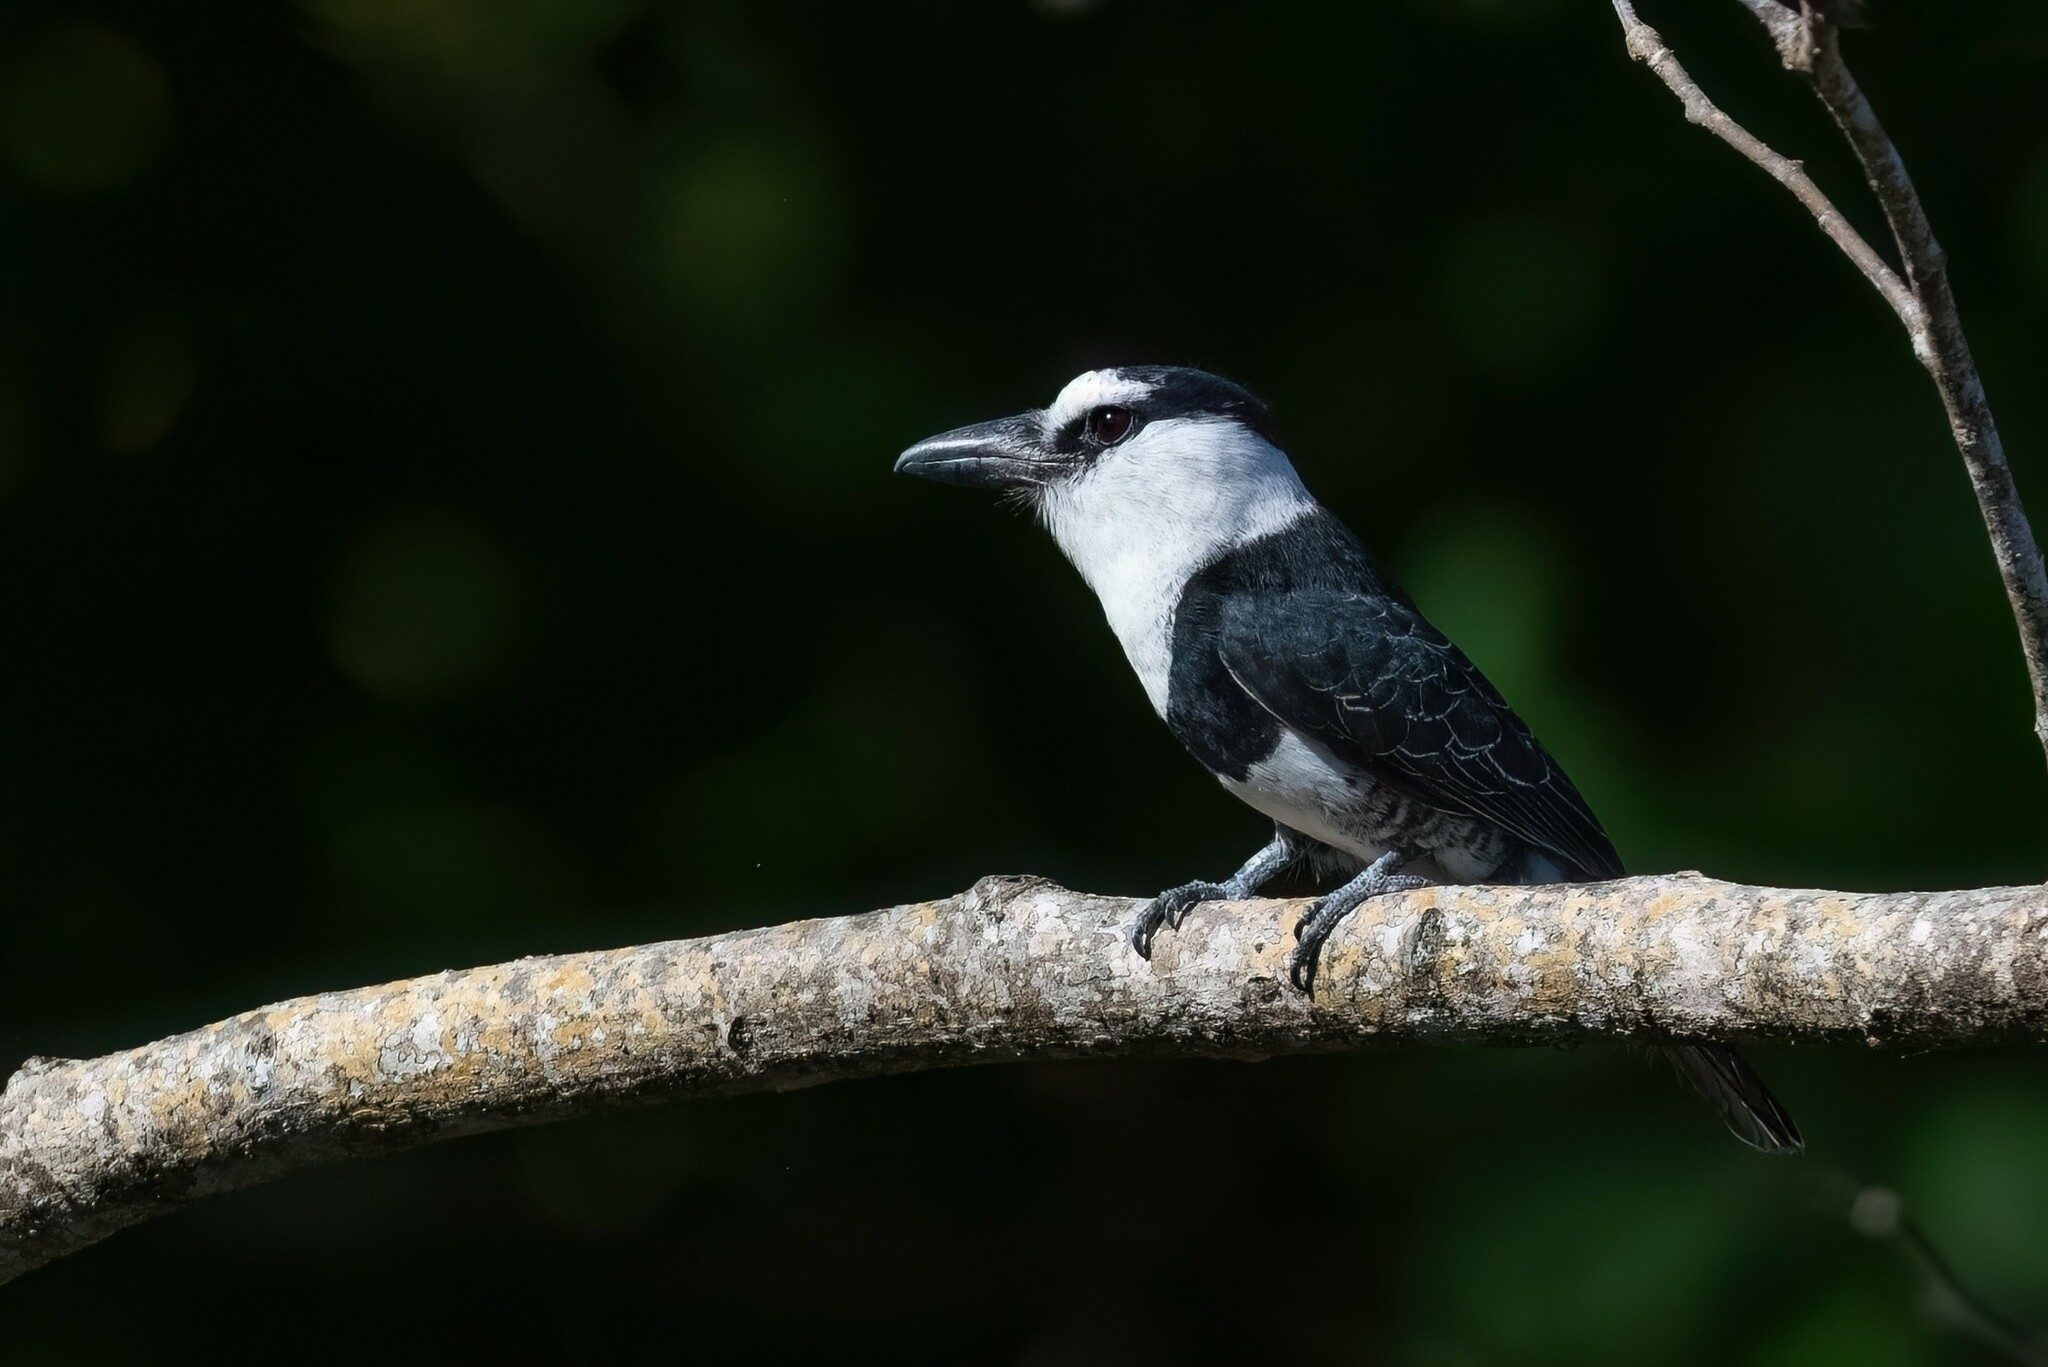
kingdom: Animalia
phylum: Chordata
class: Aves
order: Piciformes
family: Bucconidae
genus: Notharchus
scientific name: Notharchus hyperrhynchus
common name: White-necked puffbird
